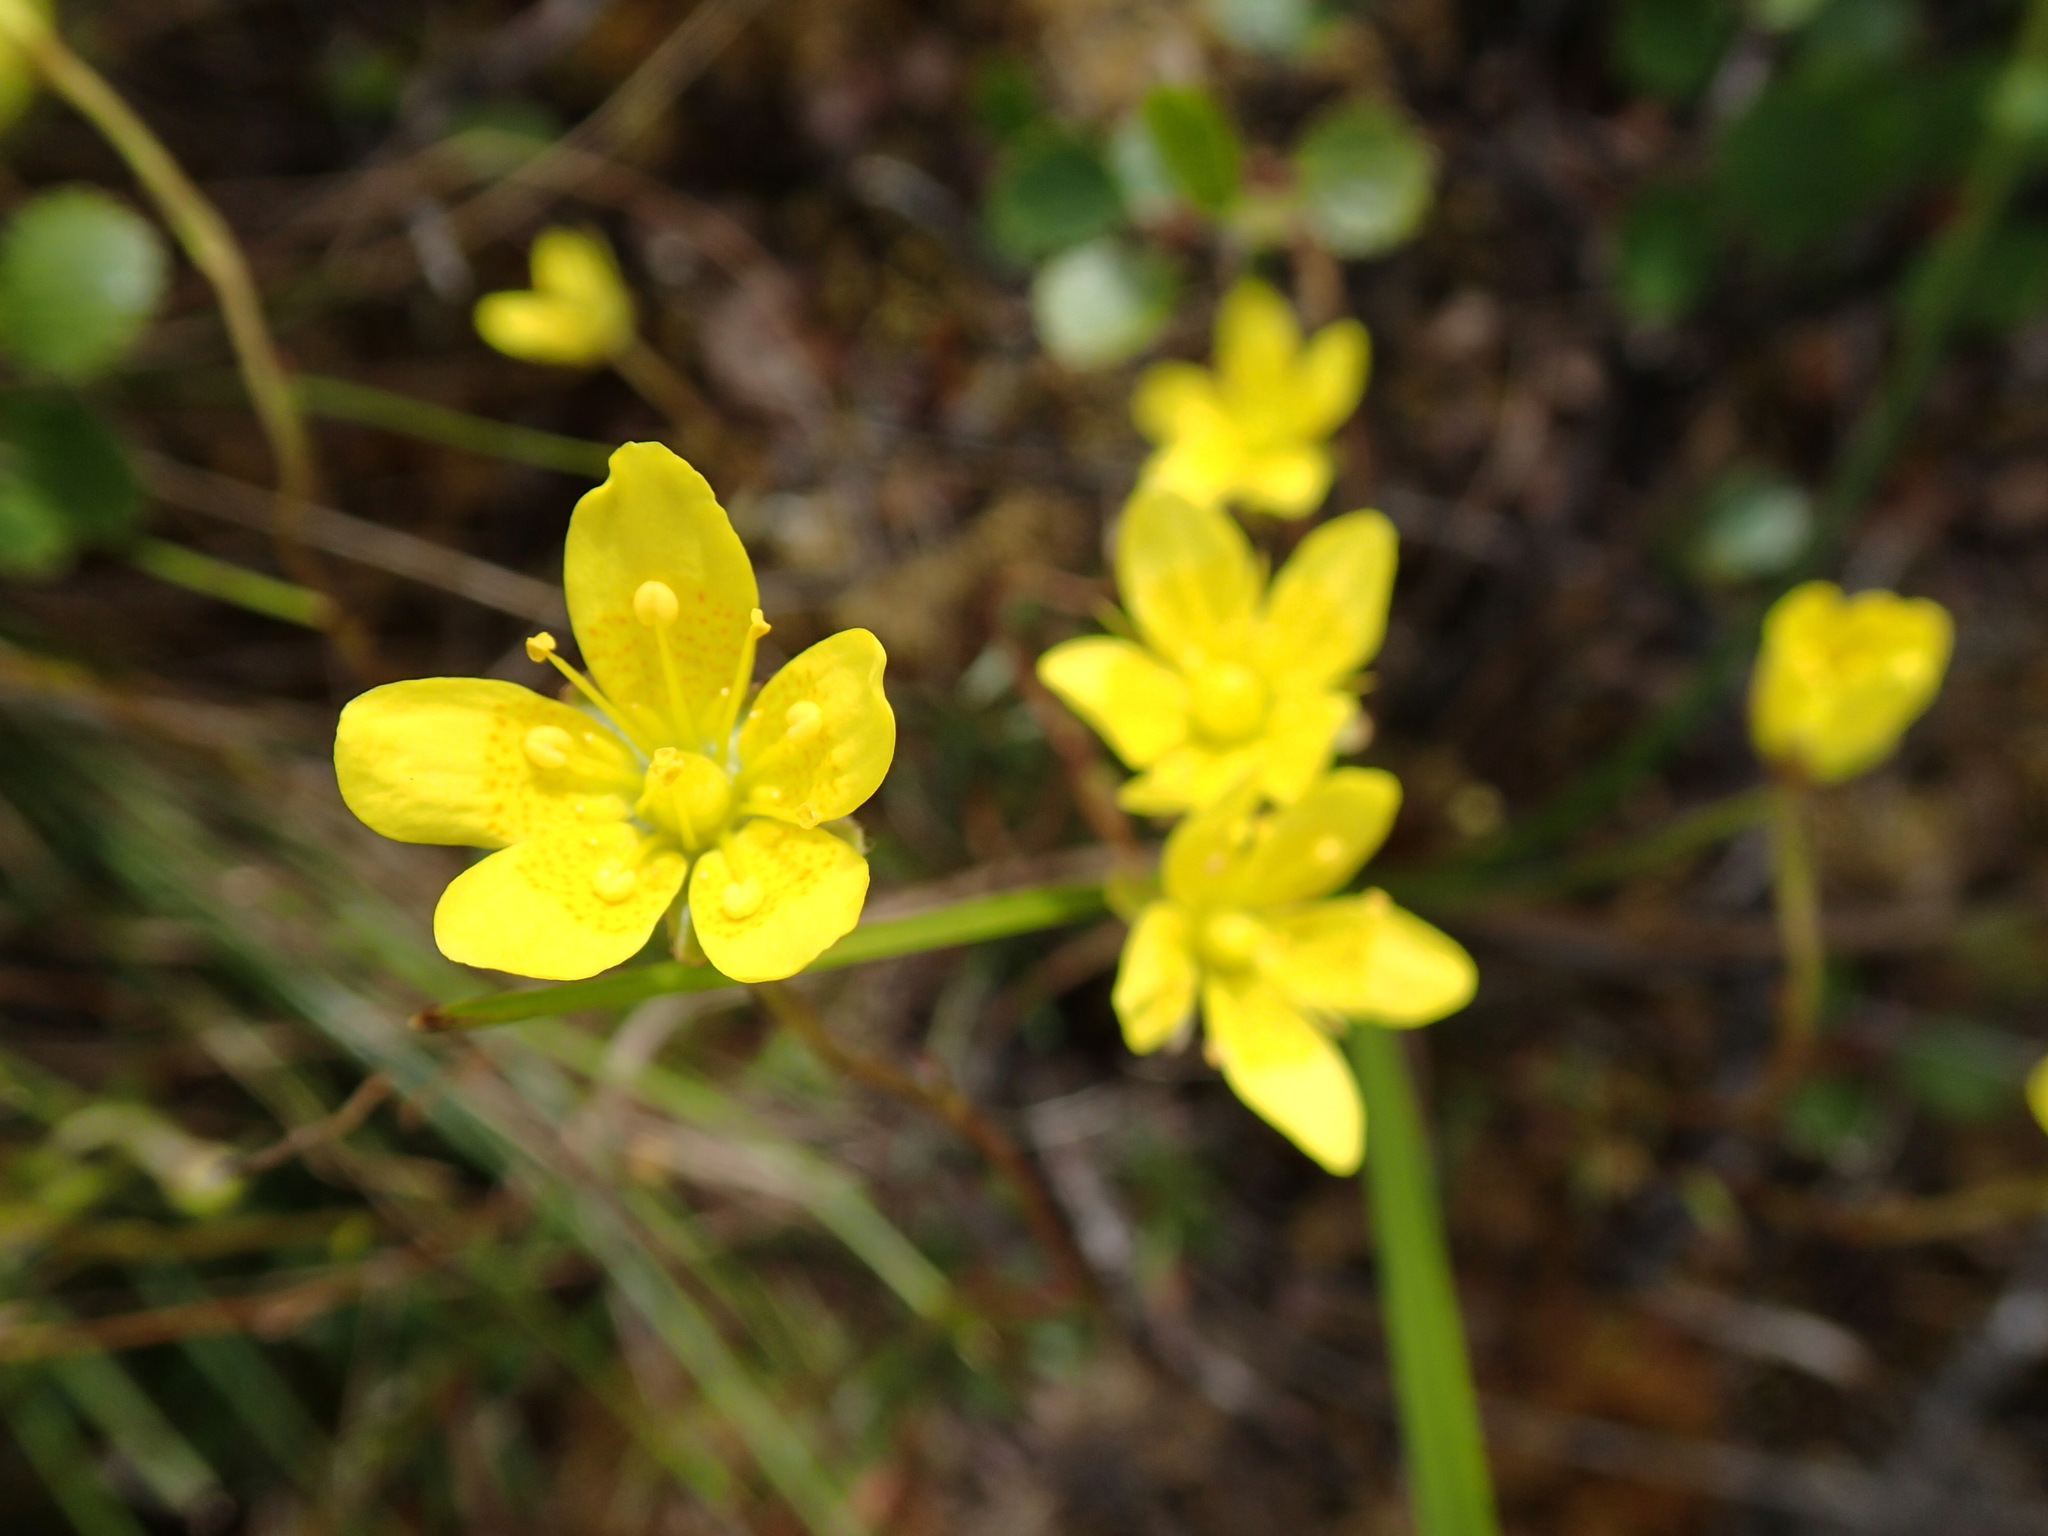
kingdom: Plantae
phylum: Tracheophyta
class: Magnoliopsida
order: Saxifragales
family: Saxifragaceae
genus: Saxifraga
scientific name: Saxifraga hirculus
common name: Yellow marsh saxifrage
